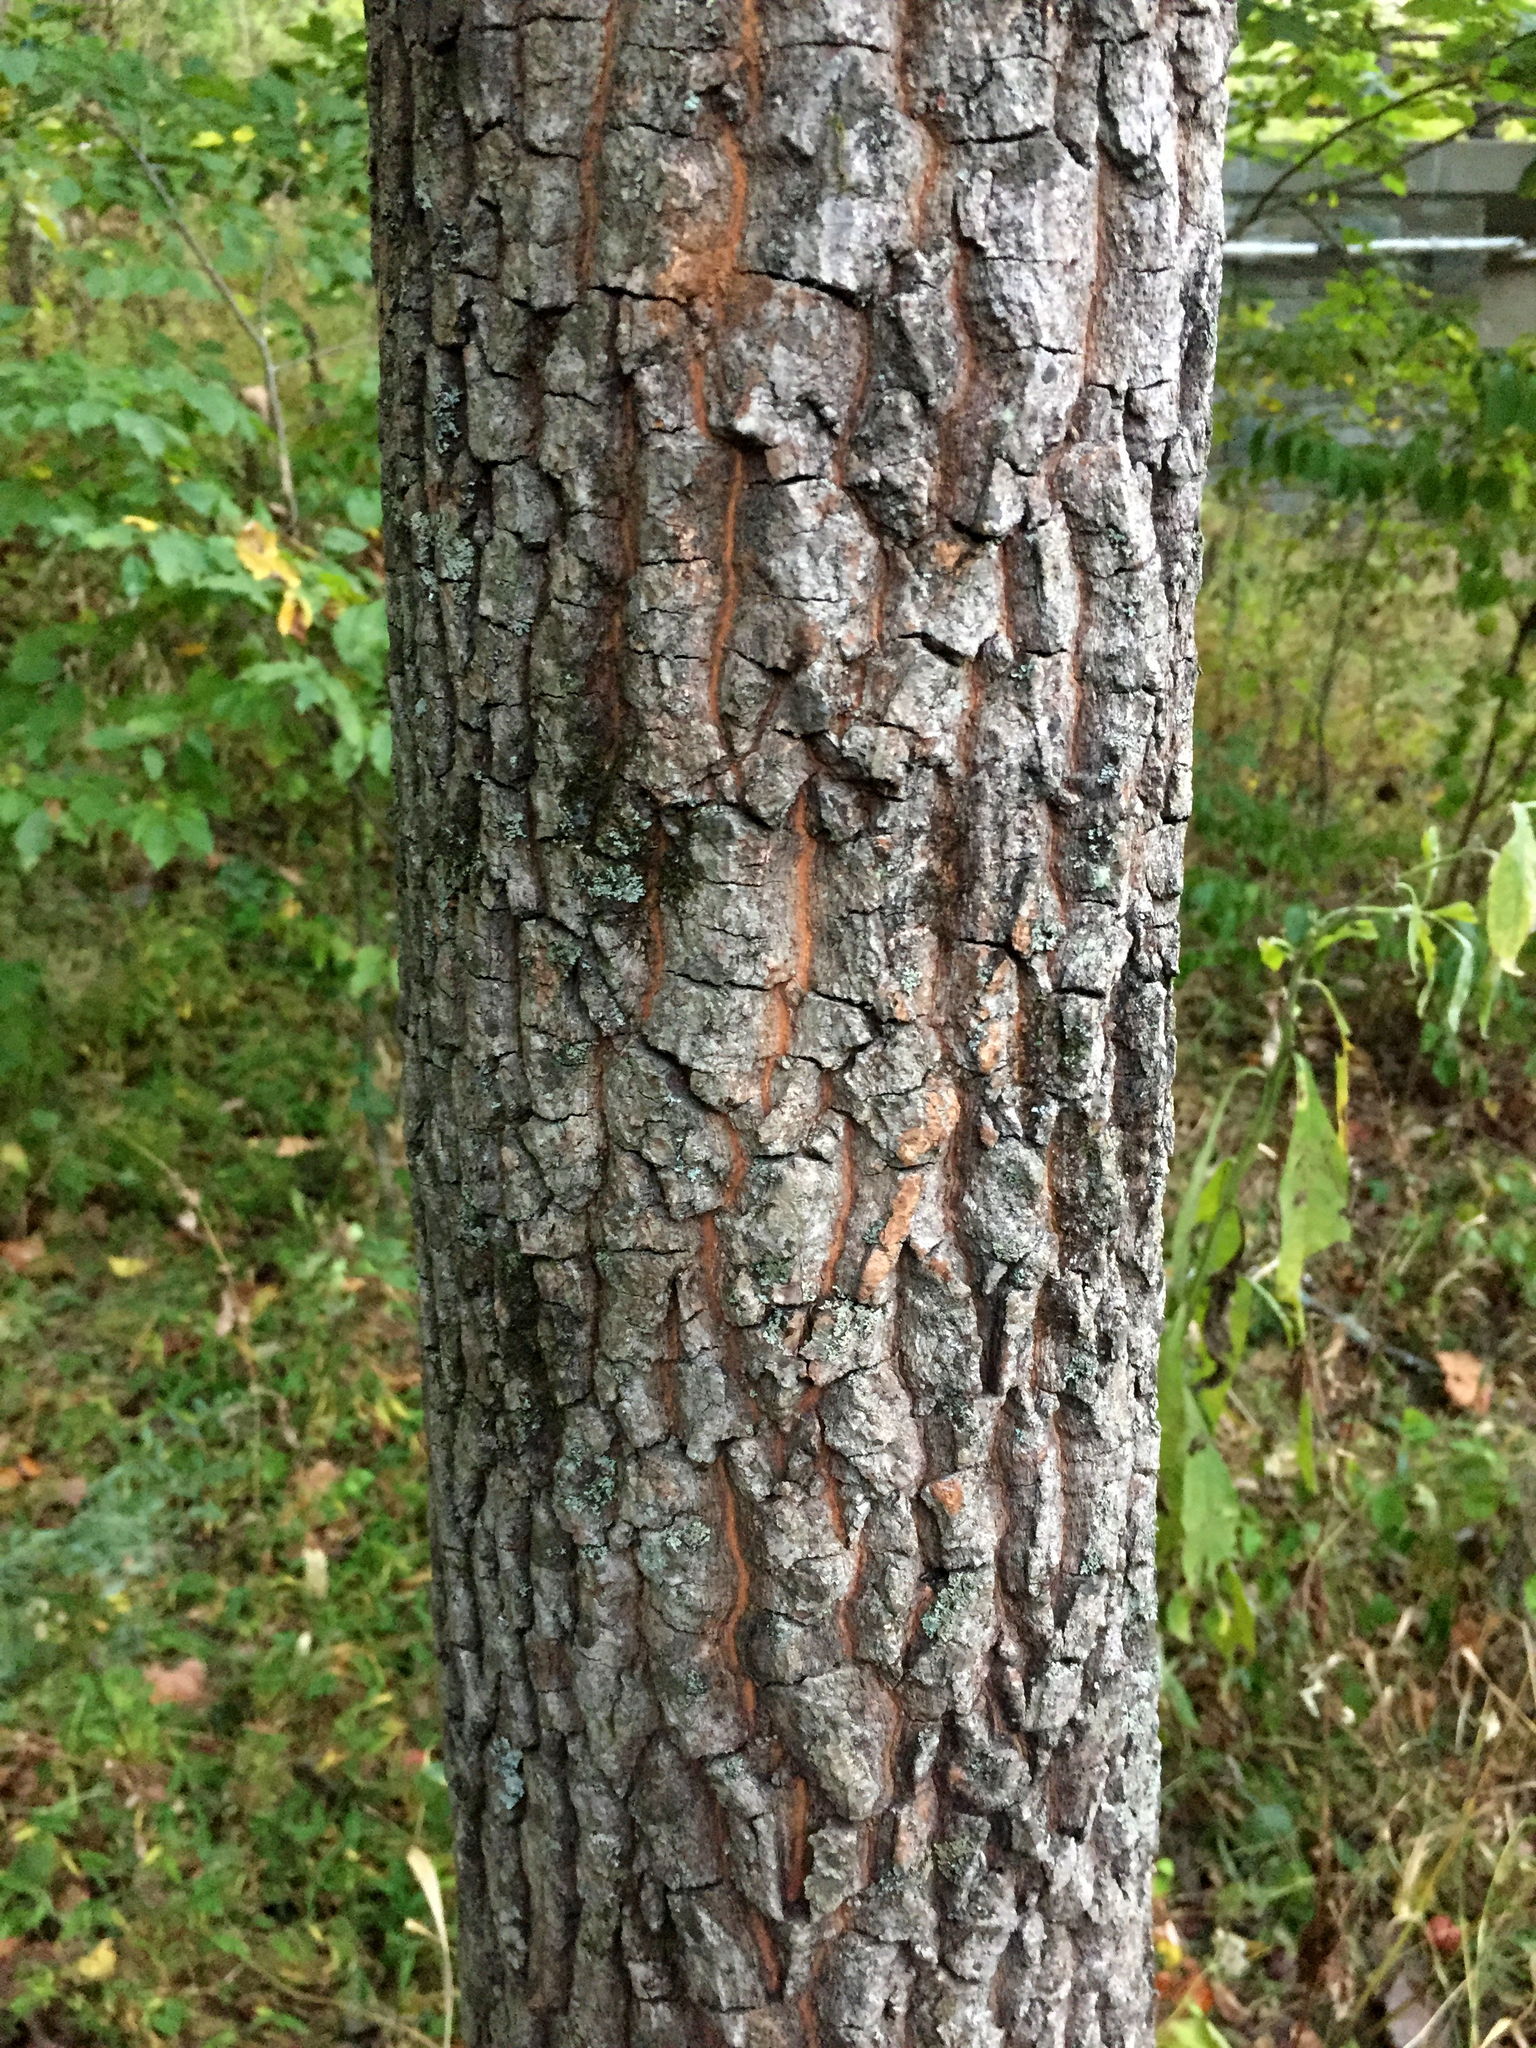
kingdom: Plantae
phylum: Tracheophyta
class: Magnoliopsida
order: Ericales
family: Ebenaceae
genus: Diospyros
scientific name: Diospyros virginiana
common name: Persimmon
